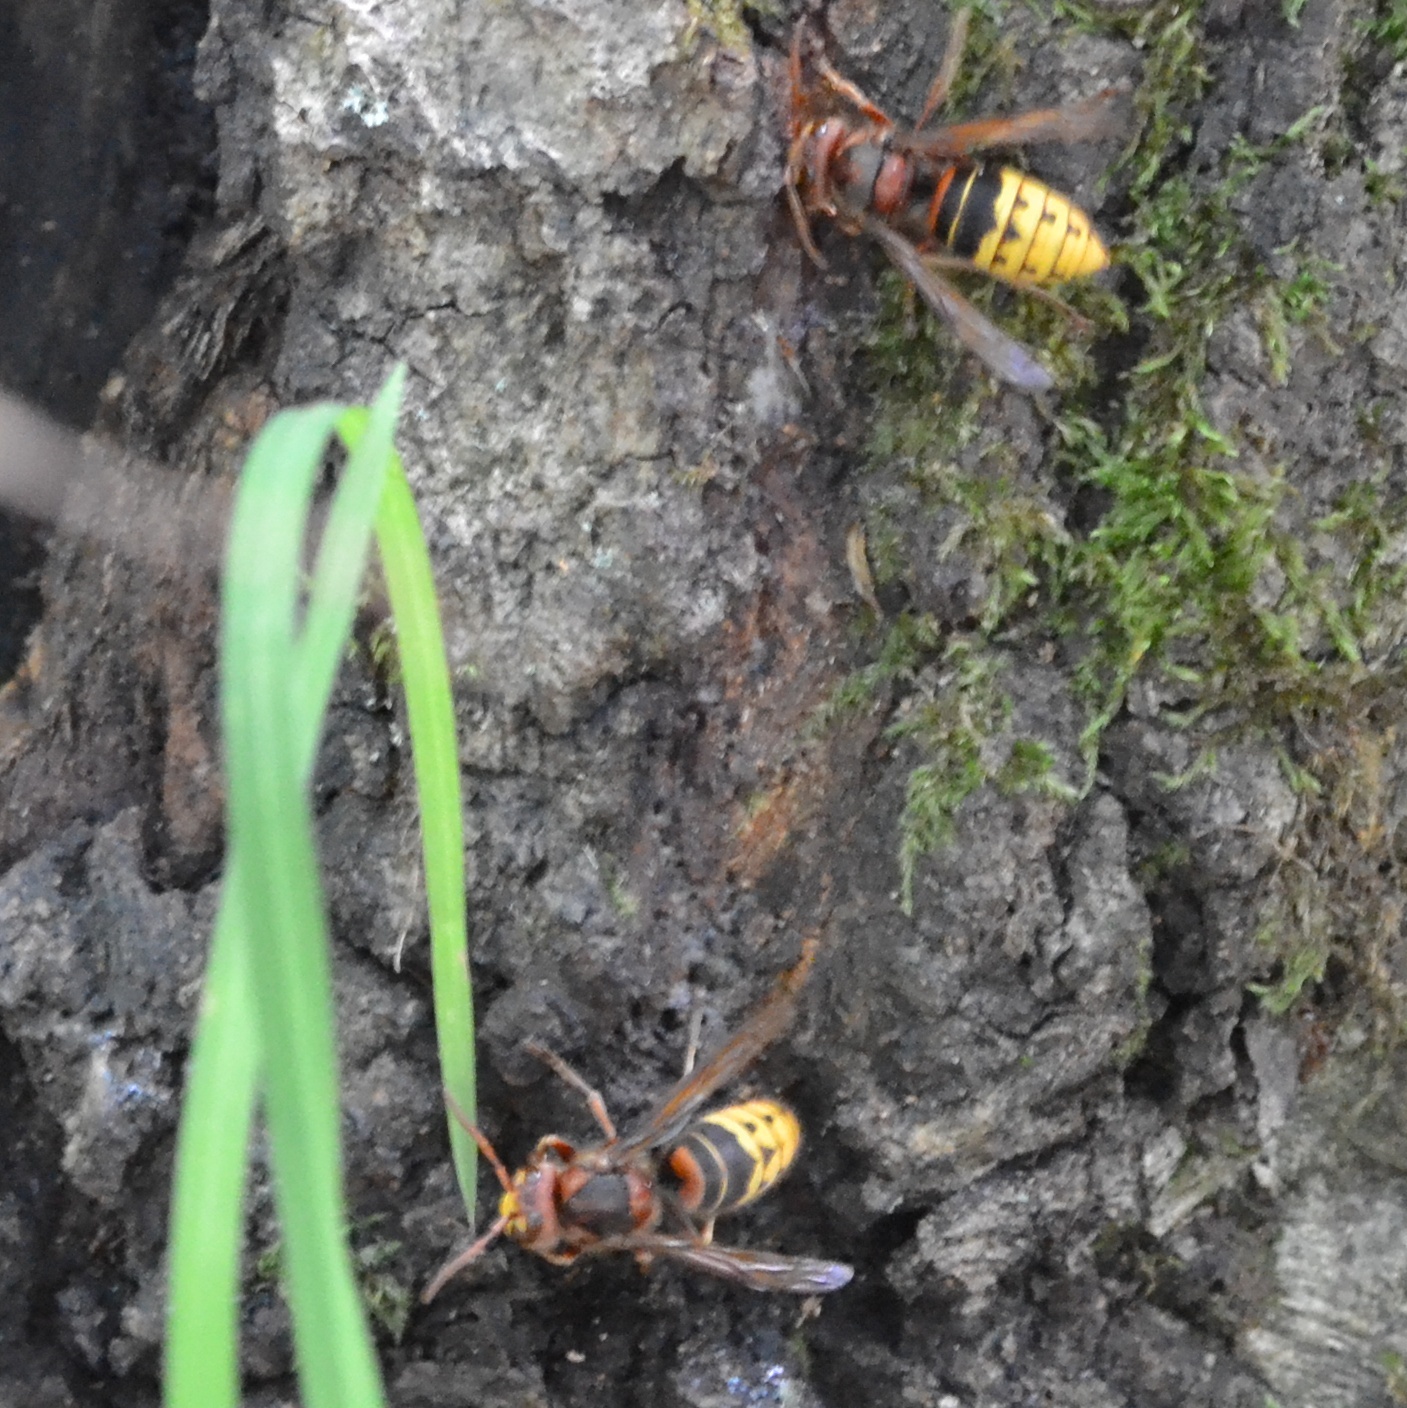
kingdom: Animalia
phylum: Arthropoda
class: Insecta
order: Hymenoptera
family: Vespidae
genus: Vespa
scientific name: Vespa crabro
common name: Hornet
